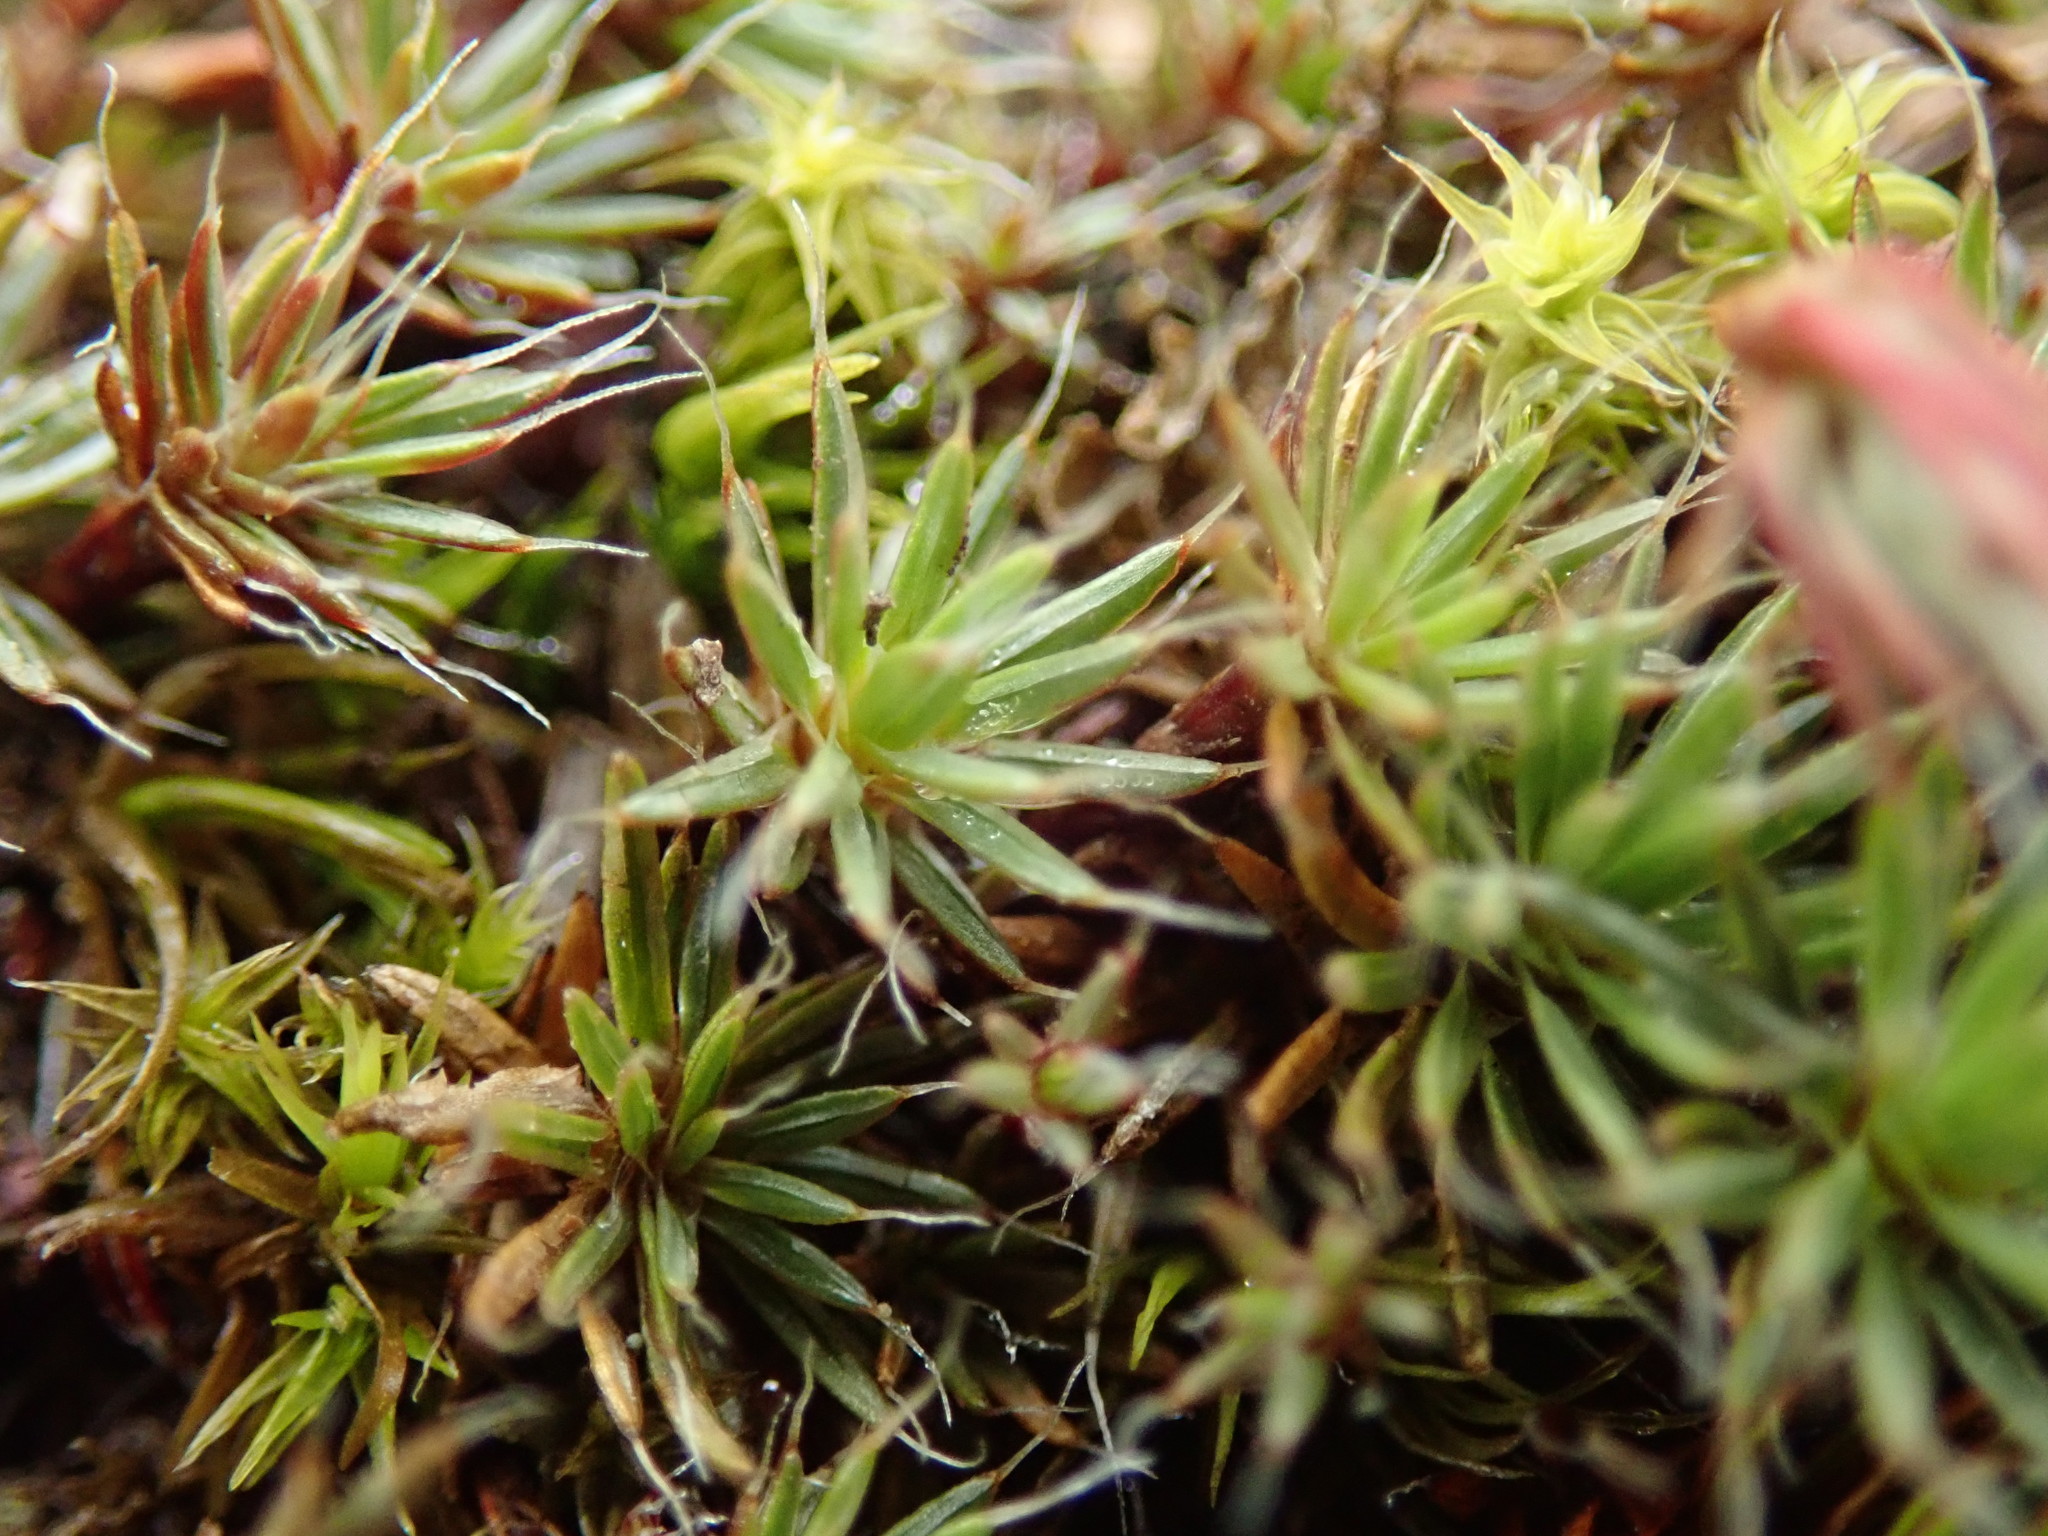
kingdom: Plantae
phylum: Bryophyta
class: Polytrichopsida
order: Polytrichales
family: Polytrichaceae
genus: Polytrichum
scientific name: Polytrichum piliferum
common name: Bristly haircap
